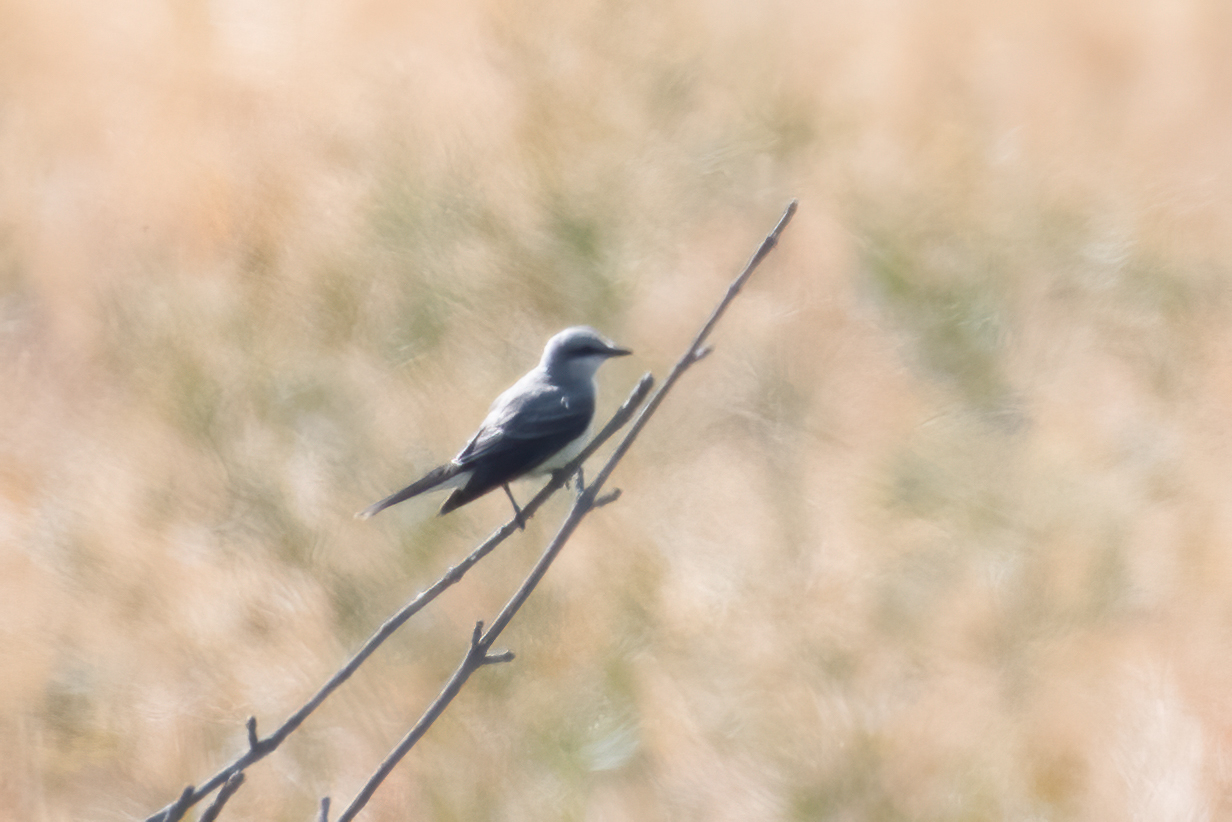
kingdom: Animalia
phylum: Chordata
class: Aves
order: Passeriformes
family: Tyrannidae
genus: Tyrannus
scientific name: Tyrannus verticalis
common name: Western kingbird
